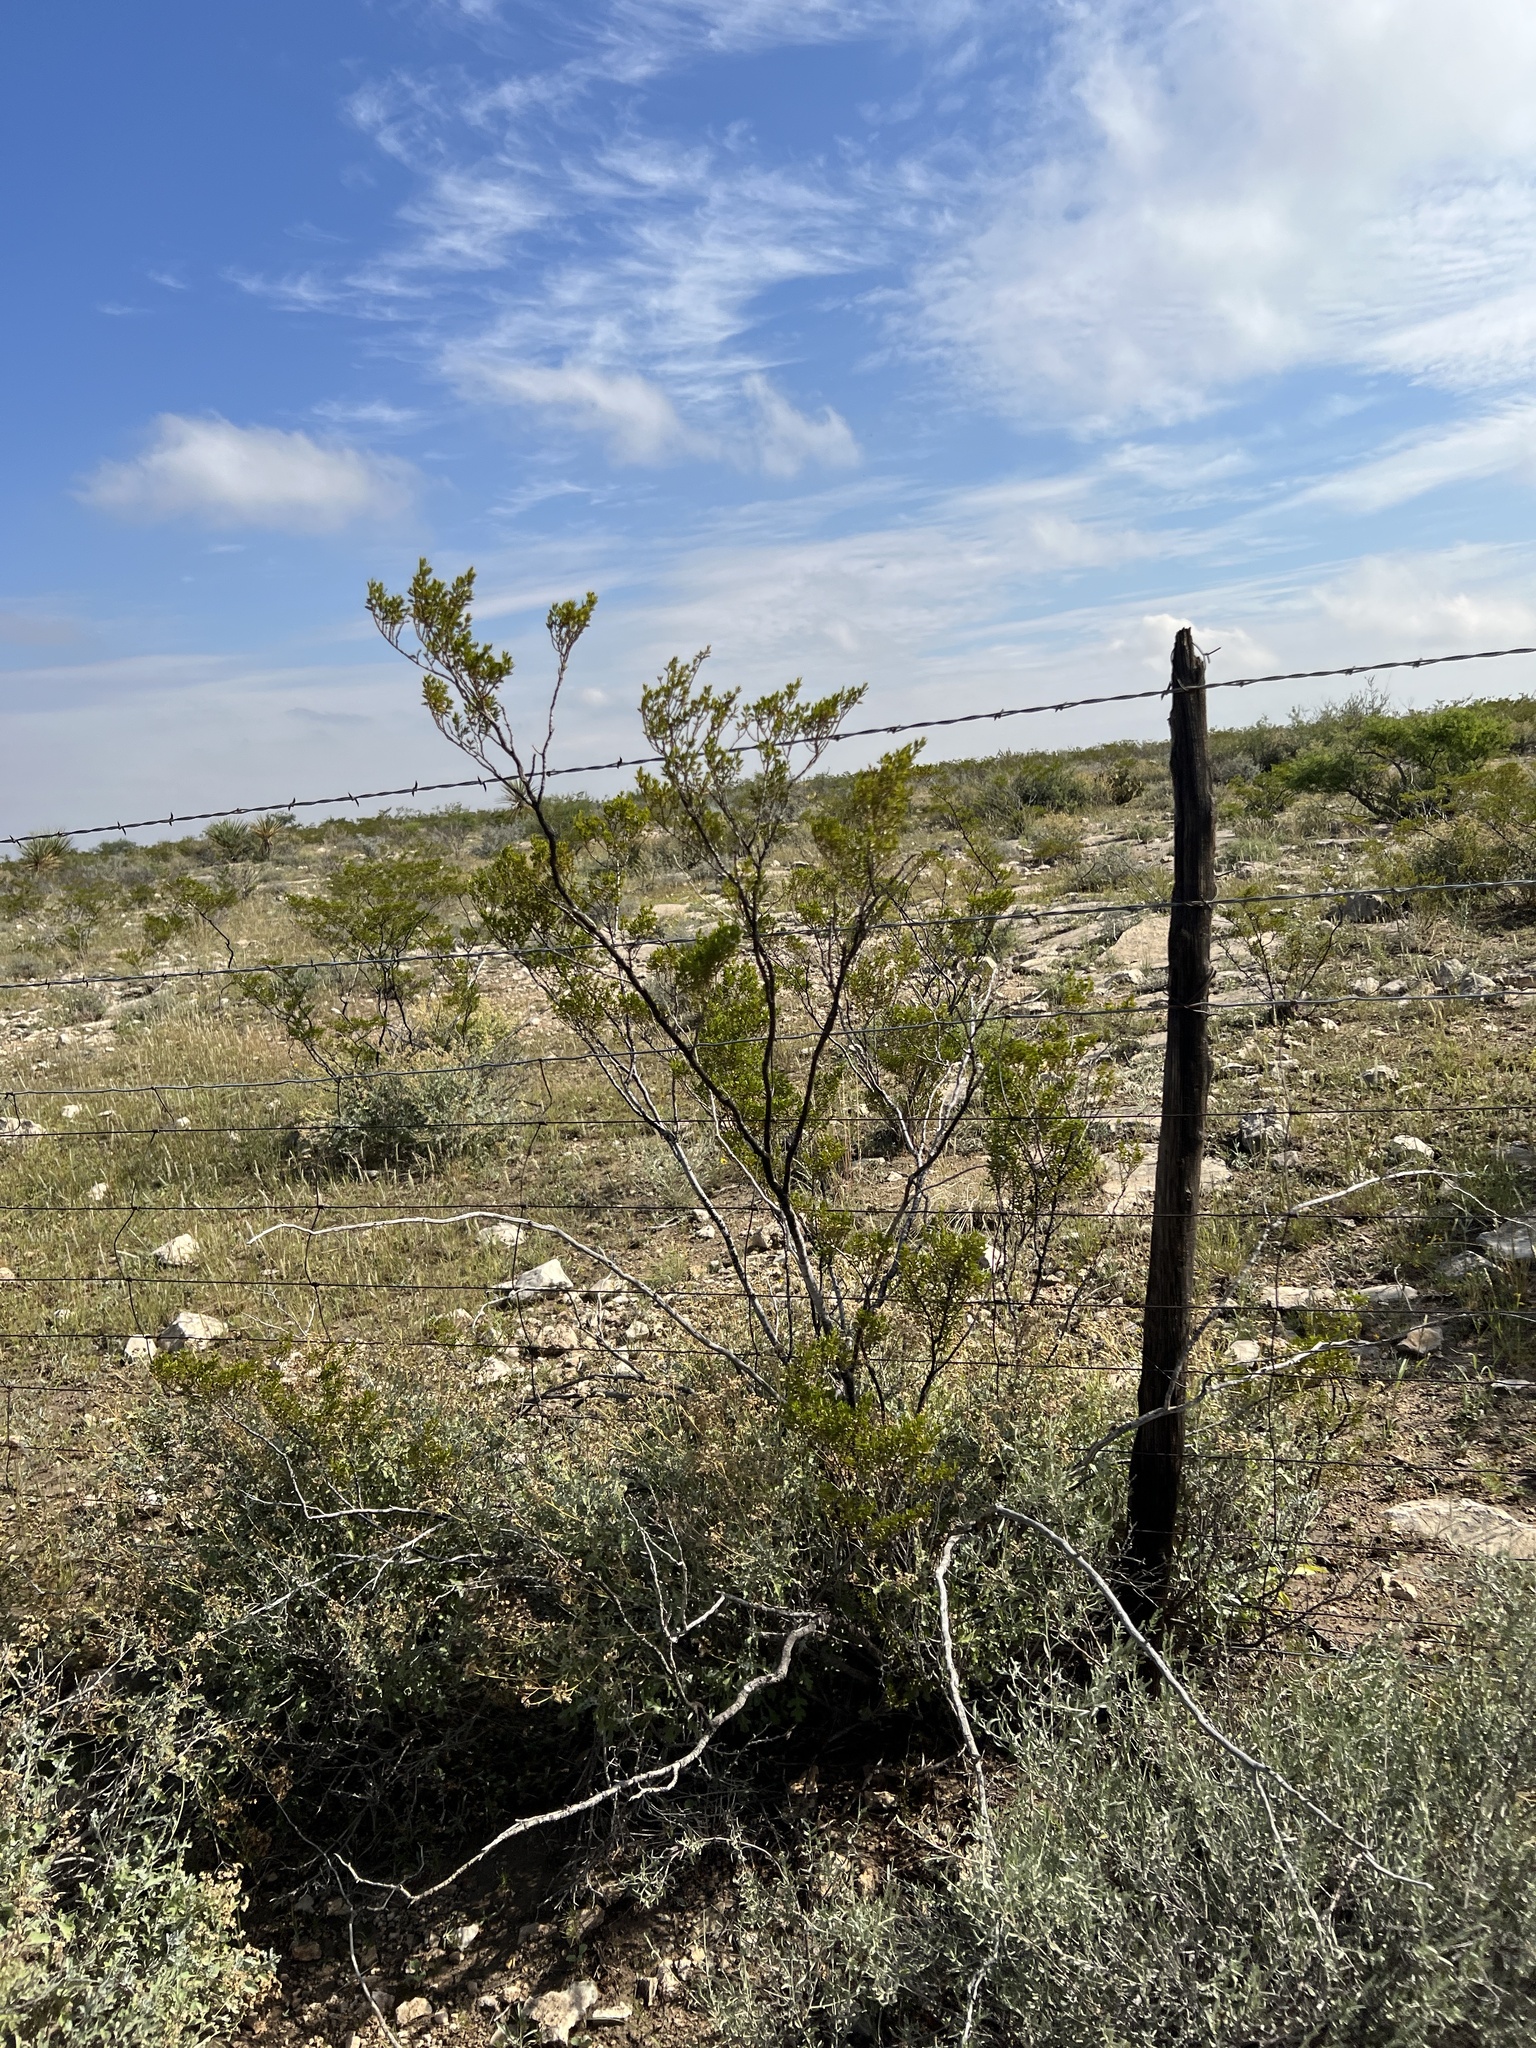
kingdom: Plantae
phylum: Tracheophyta
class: Magnoliopsida
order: Zygophyllales
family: Zygophyllaceae
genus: Larrea
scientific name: Larrea tridentata
